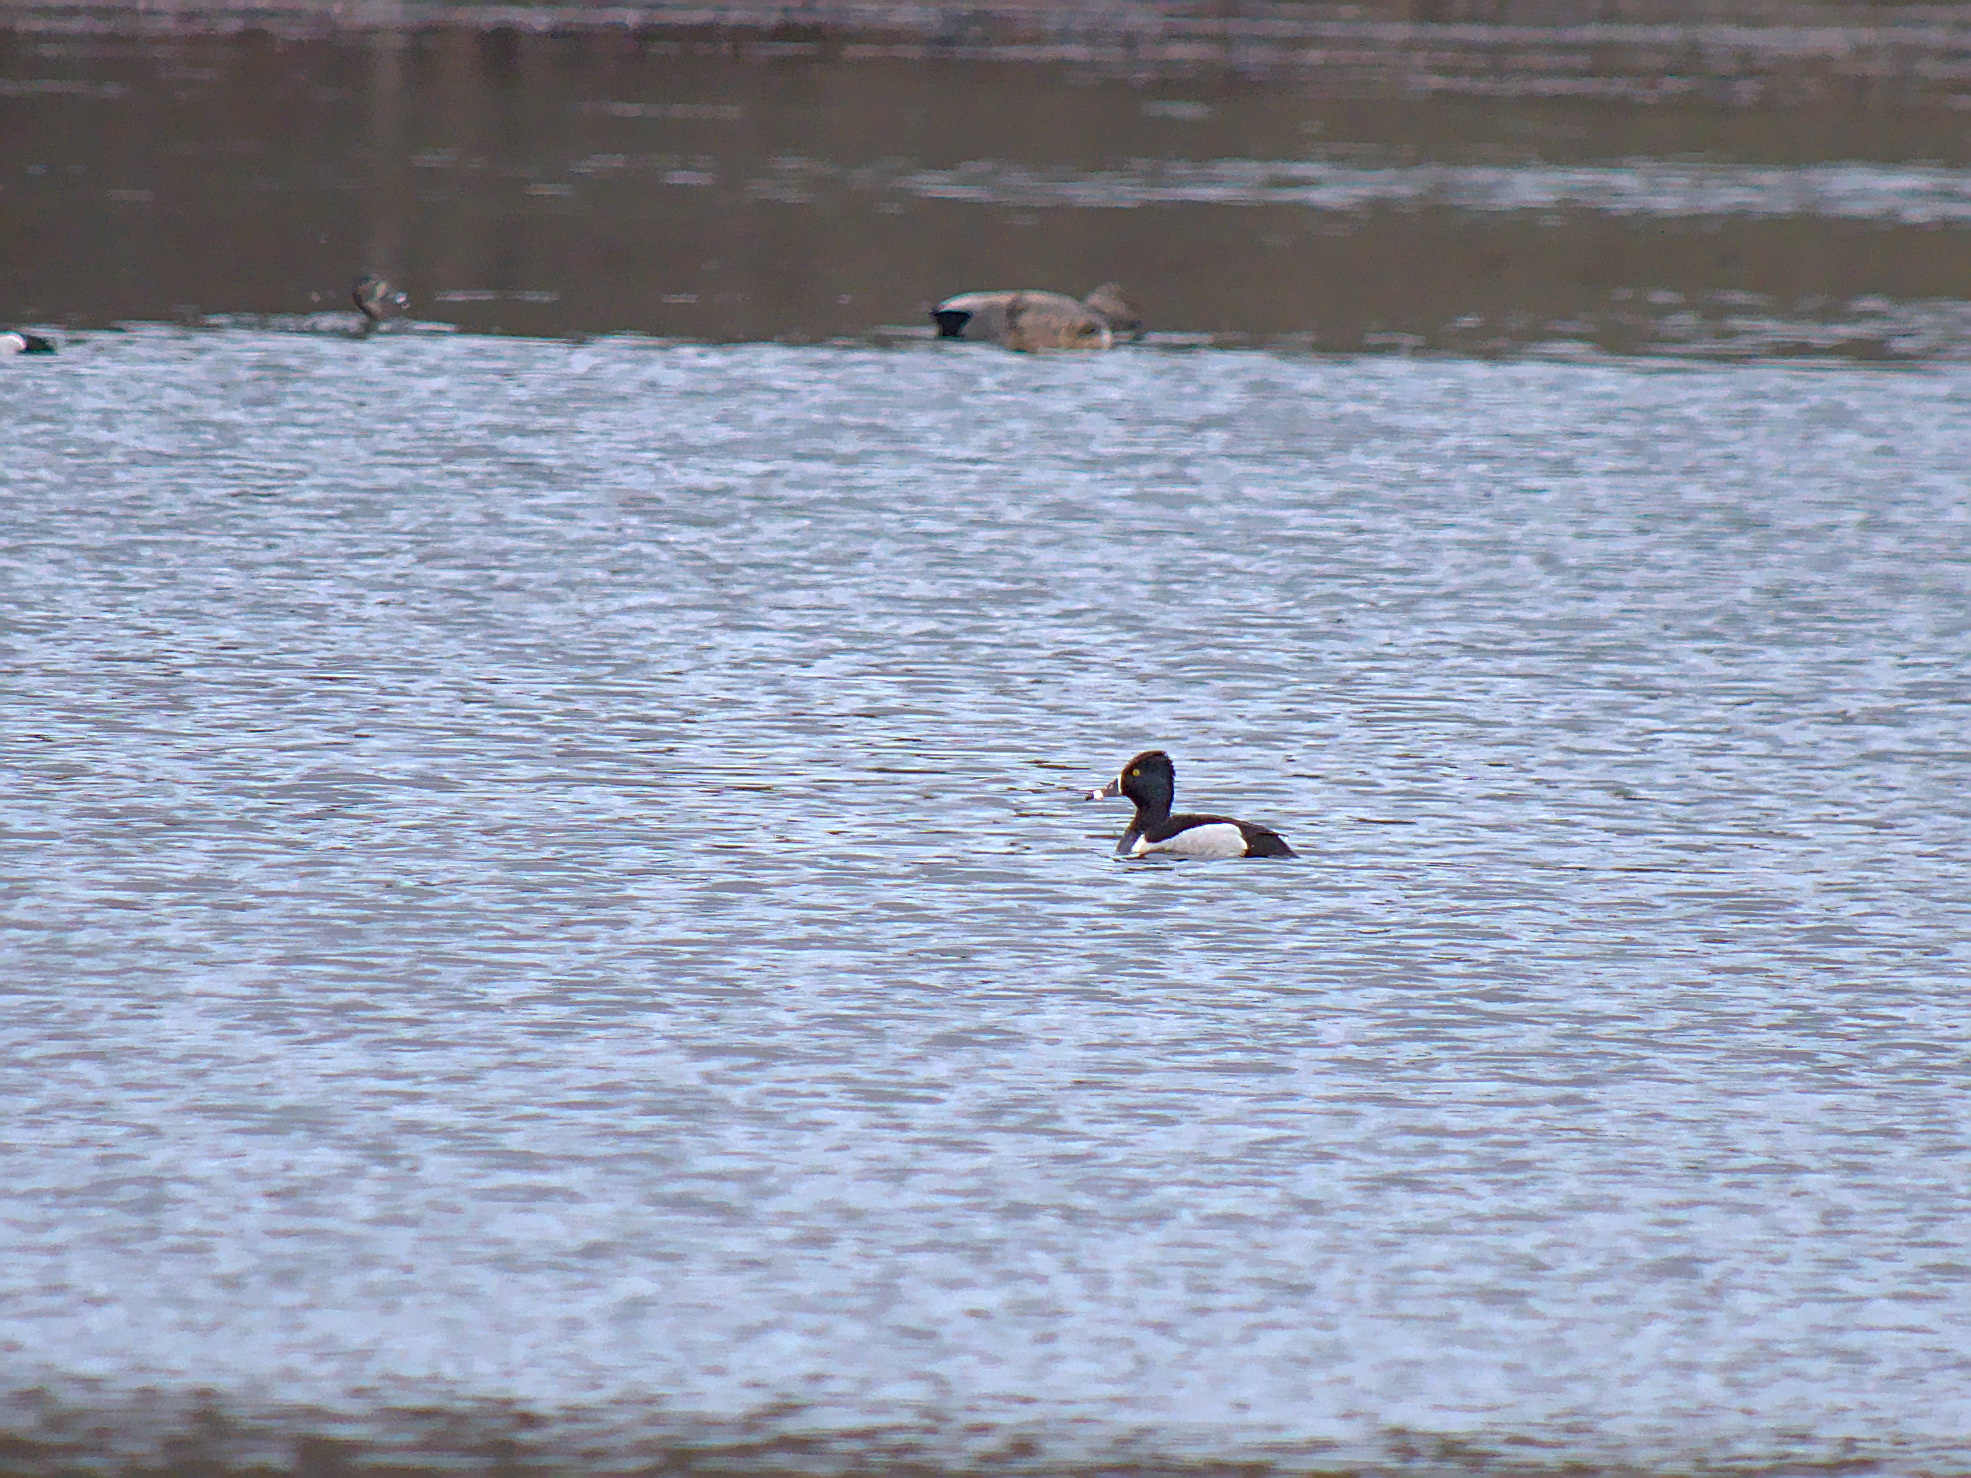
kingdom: Animalia
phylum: Chordata
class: Aves
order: Anseriformes
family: Anatidae
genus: Aythya
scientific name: Aythya collaris
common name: Ring-necked duck
